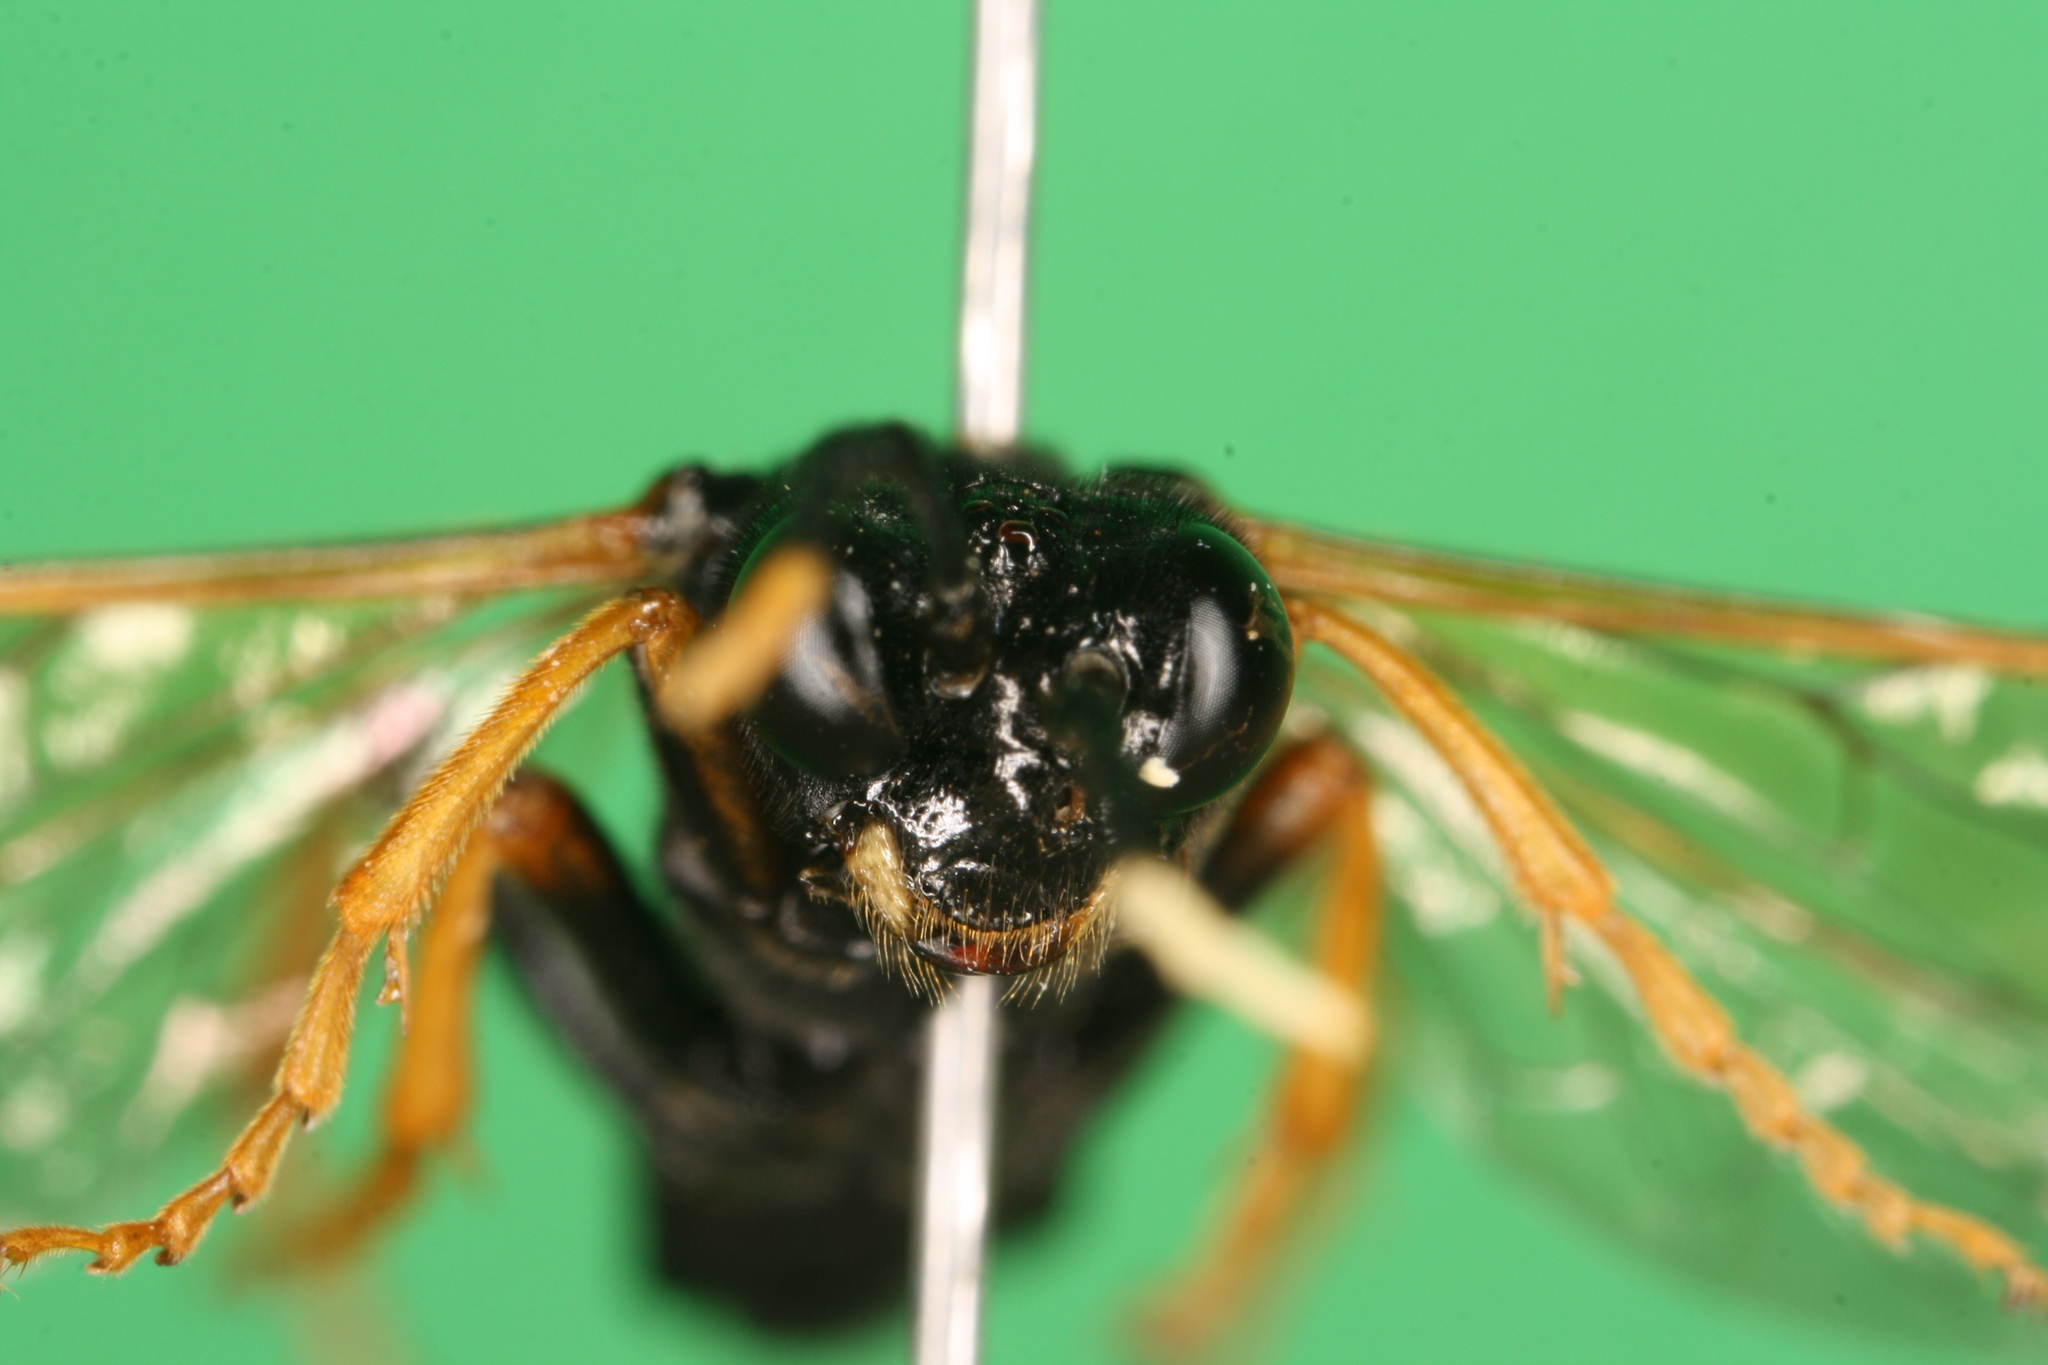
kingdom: Animalia
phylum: Arthropoda
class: Insecta
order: Hymenoptera
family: Tenthredinidae
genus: Tenthredo
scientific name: Tenthredo crassa
